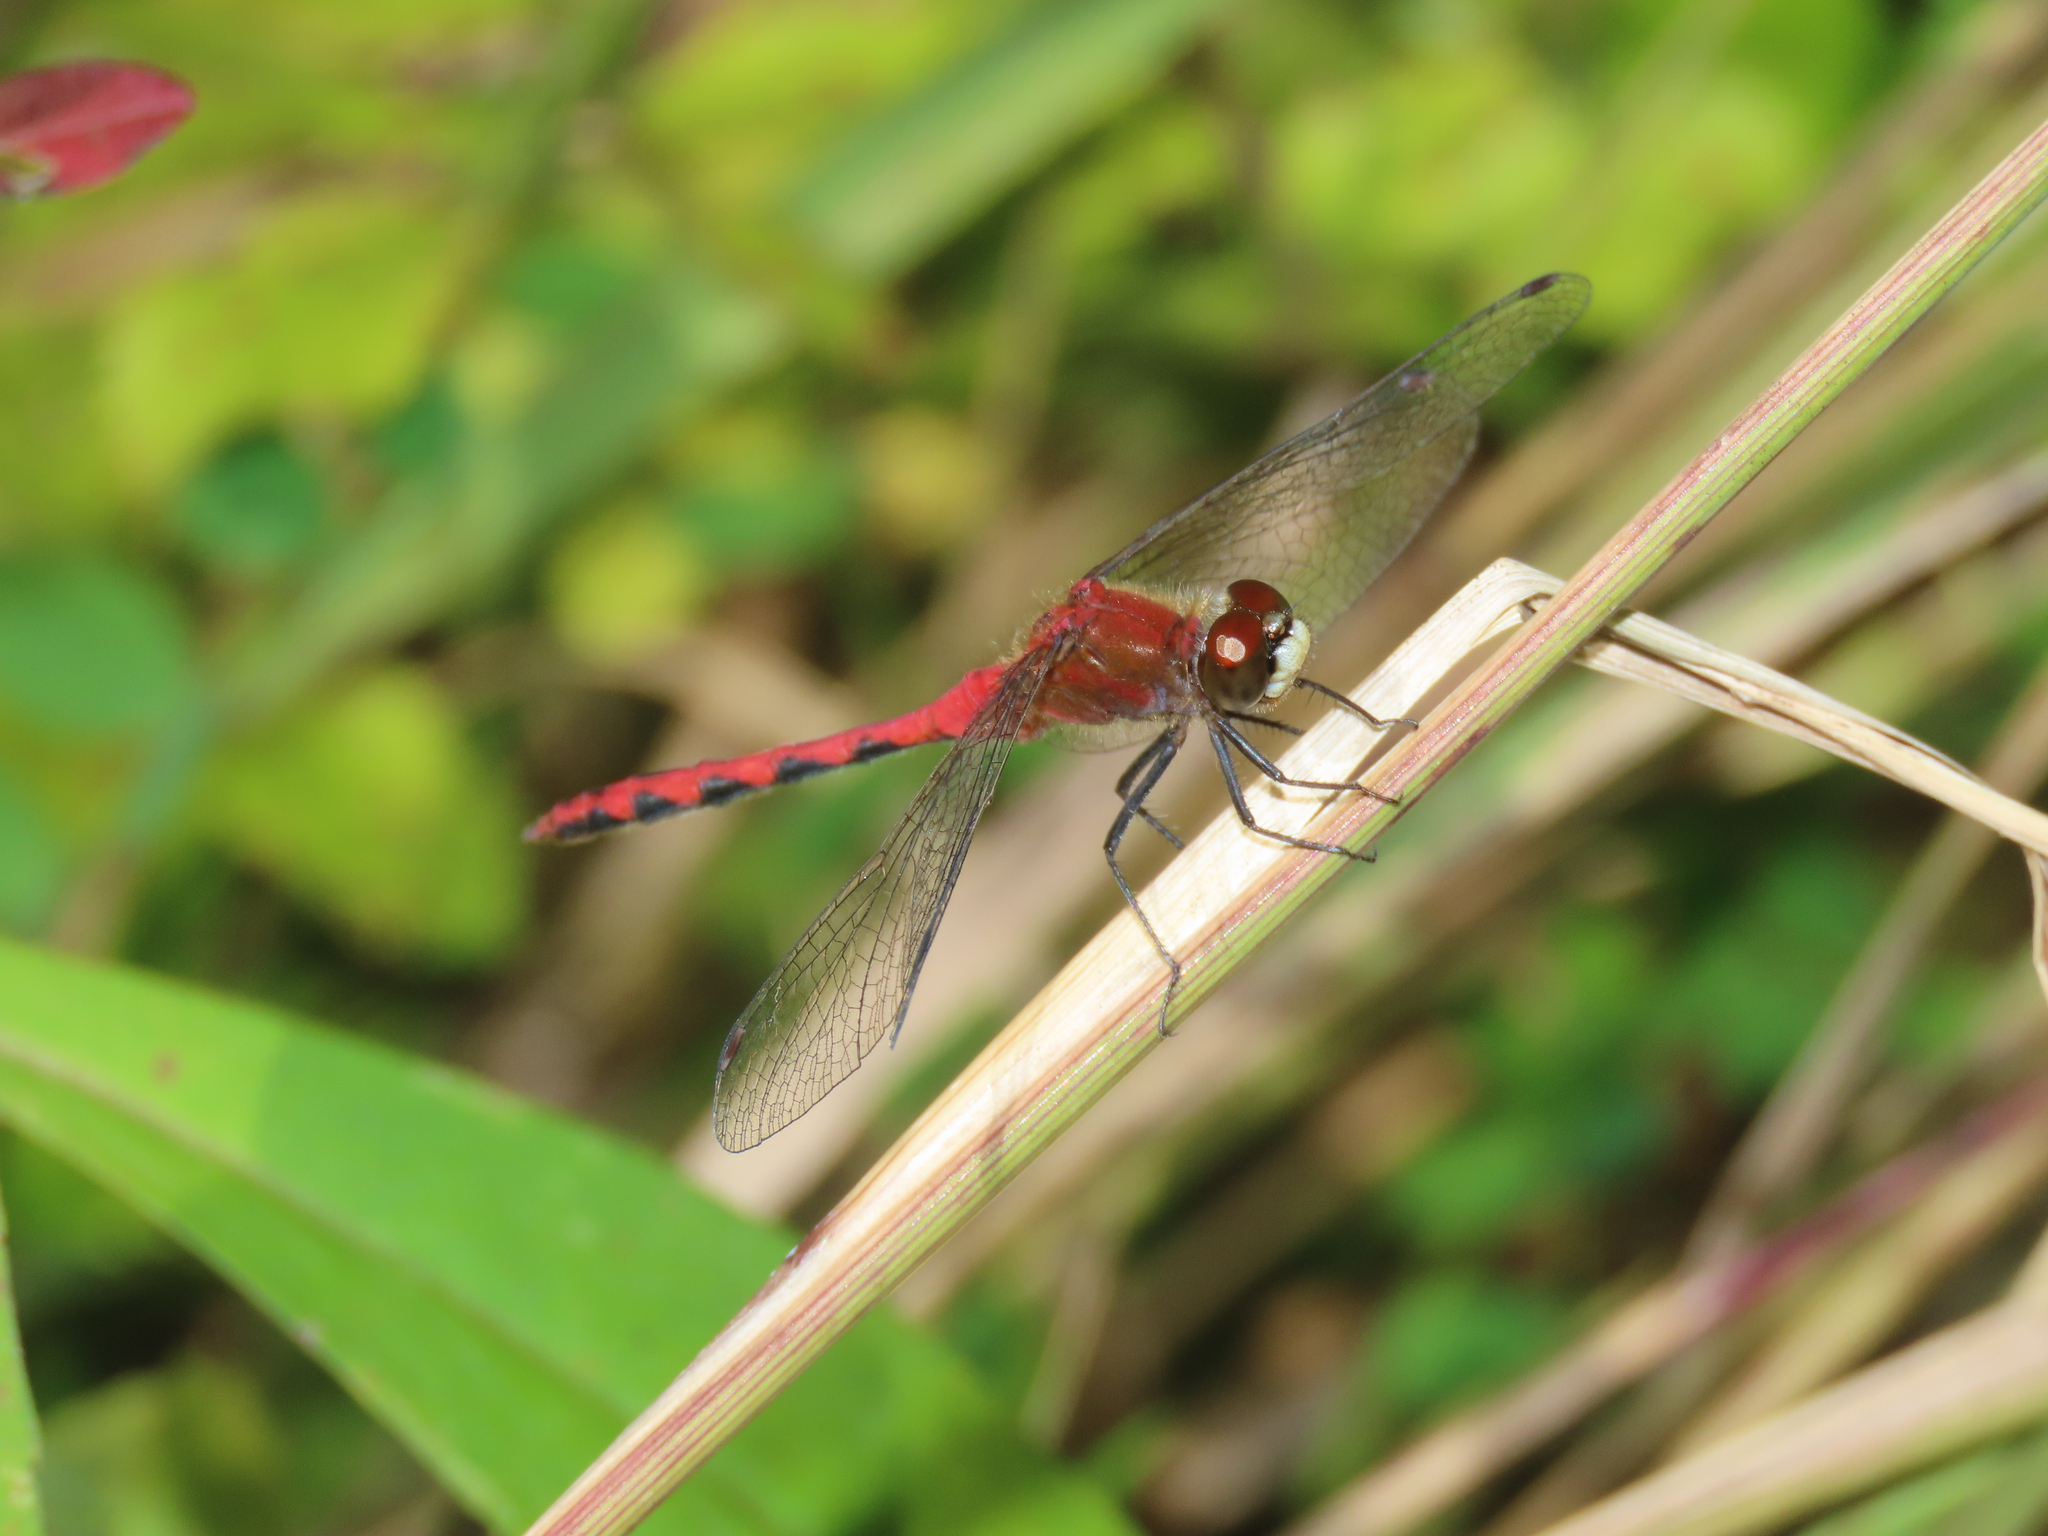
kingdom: Animalia
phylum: Arthropoda
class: Insecta
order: Odonata
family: Libellulidae
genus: Sympetrum
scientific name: Sympetrum obtrusum
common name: White-faced meadowhawk
